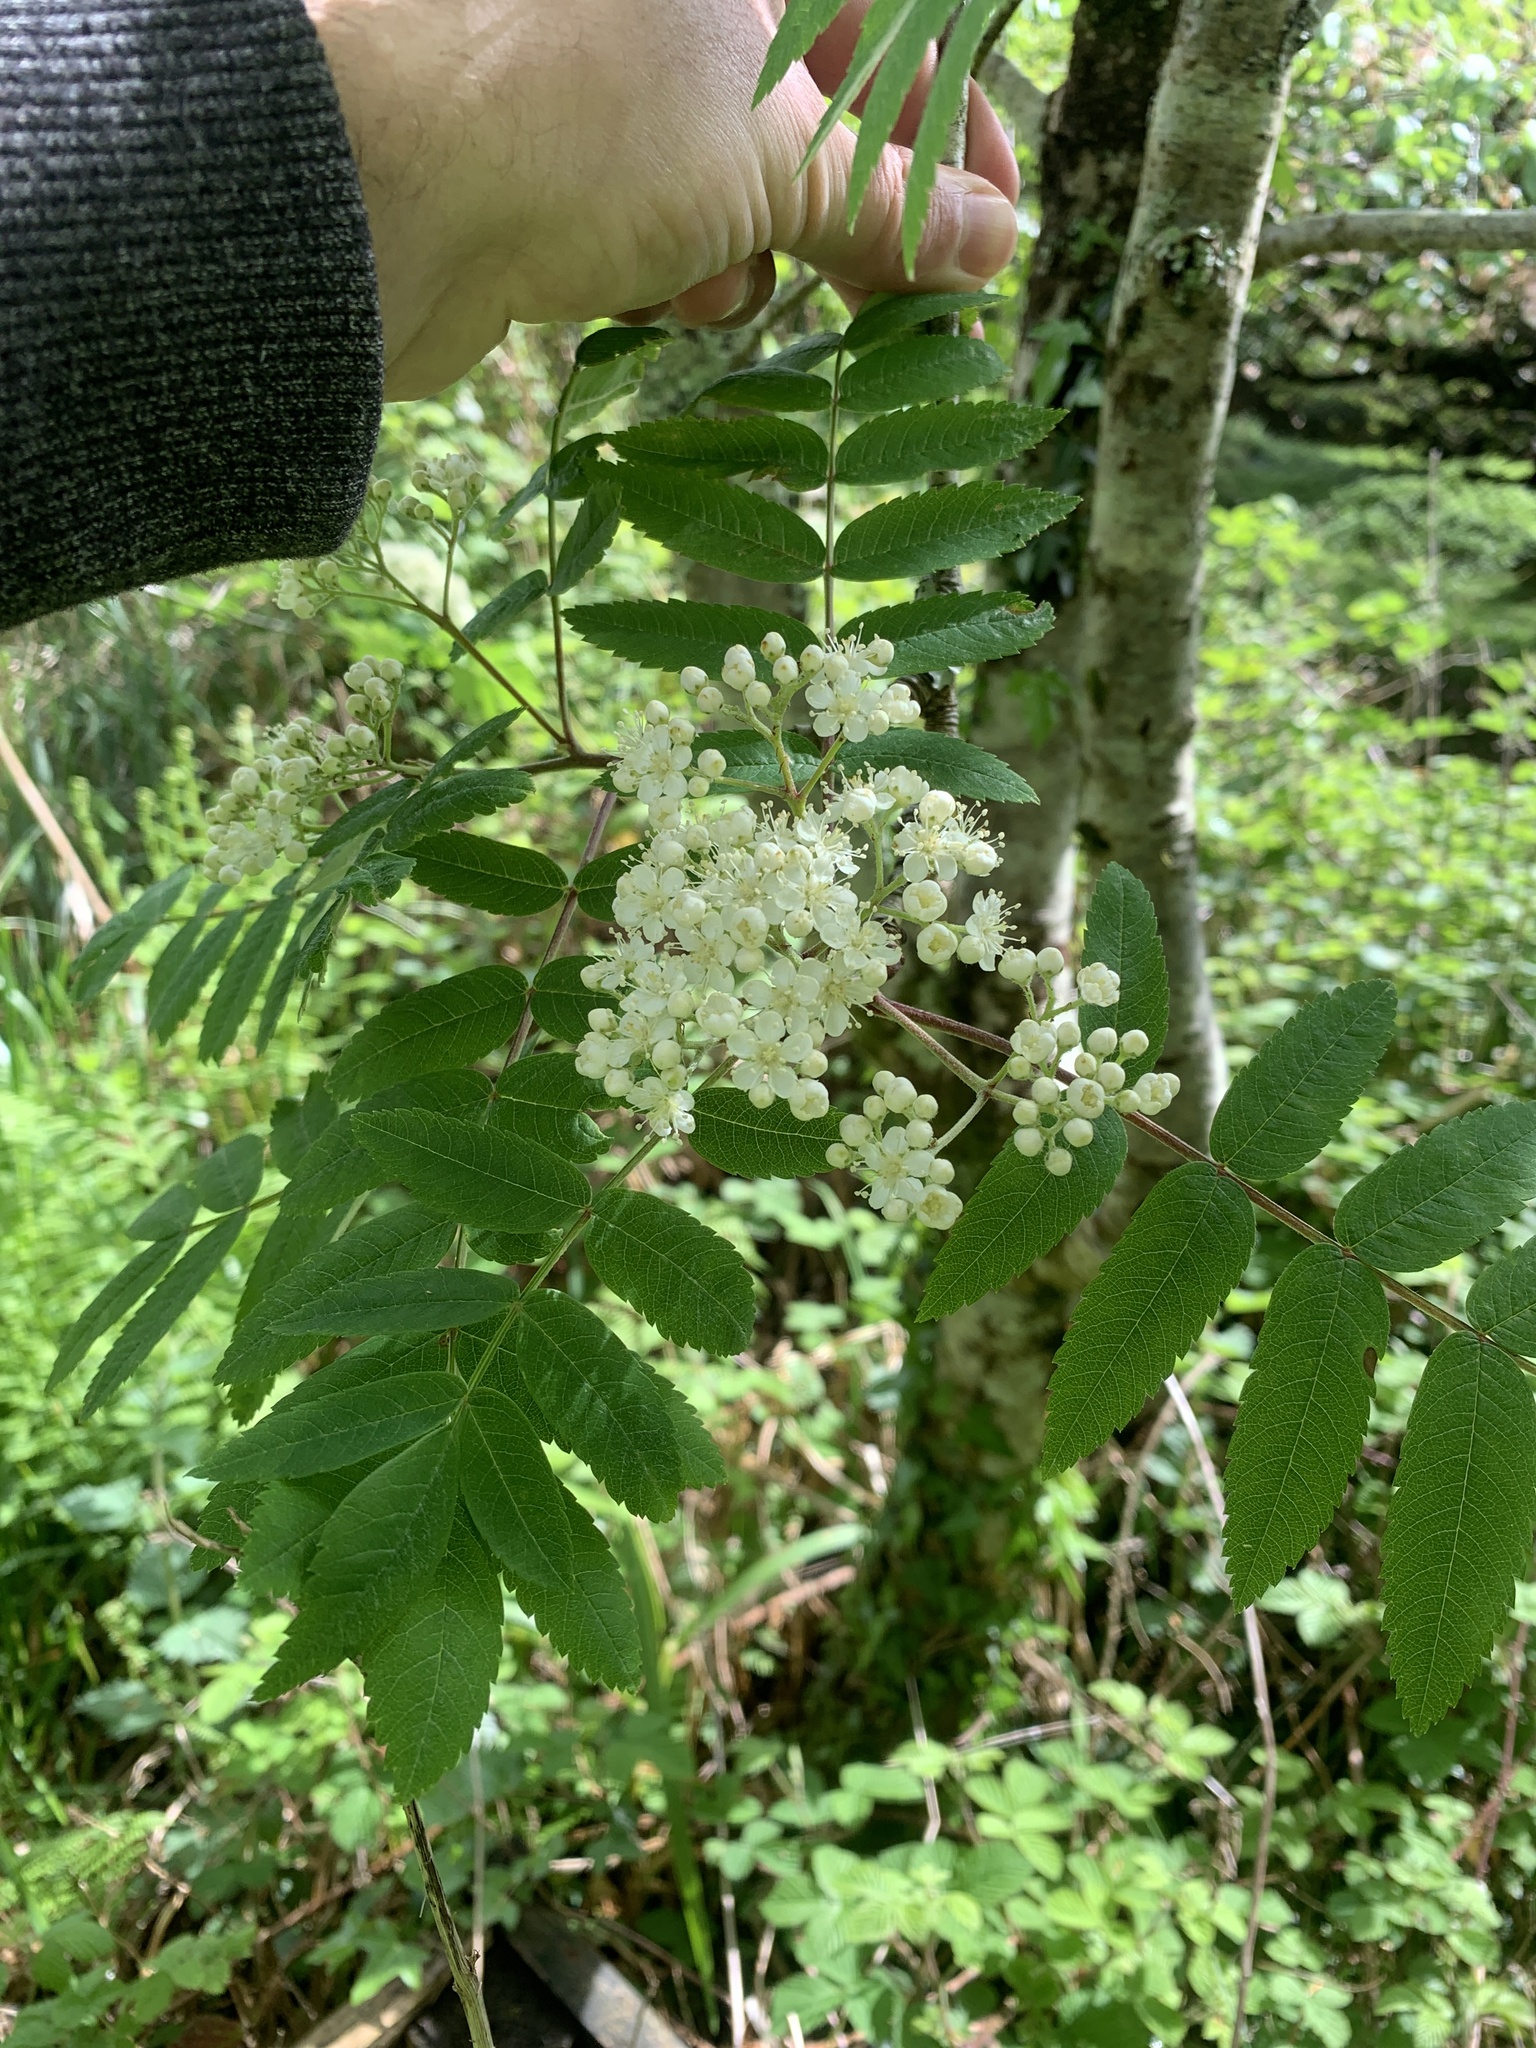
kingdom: Plantae
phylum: Tracheophyta
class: Magnoliopsida
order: Rosales
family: Rosaceae
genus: Sorbus
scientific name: Sorbus aucuparia
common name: Rowan
